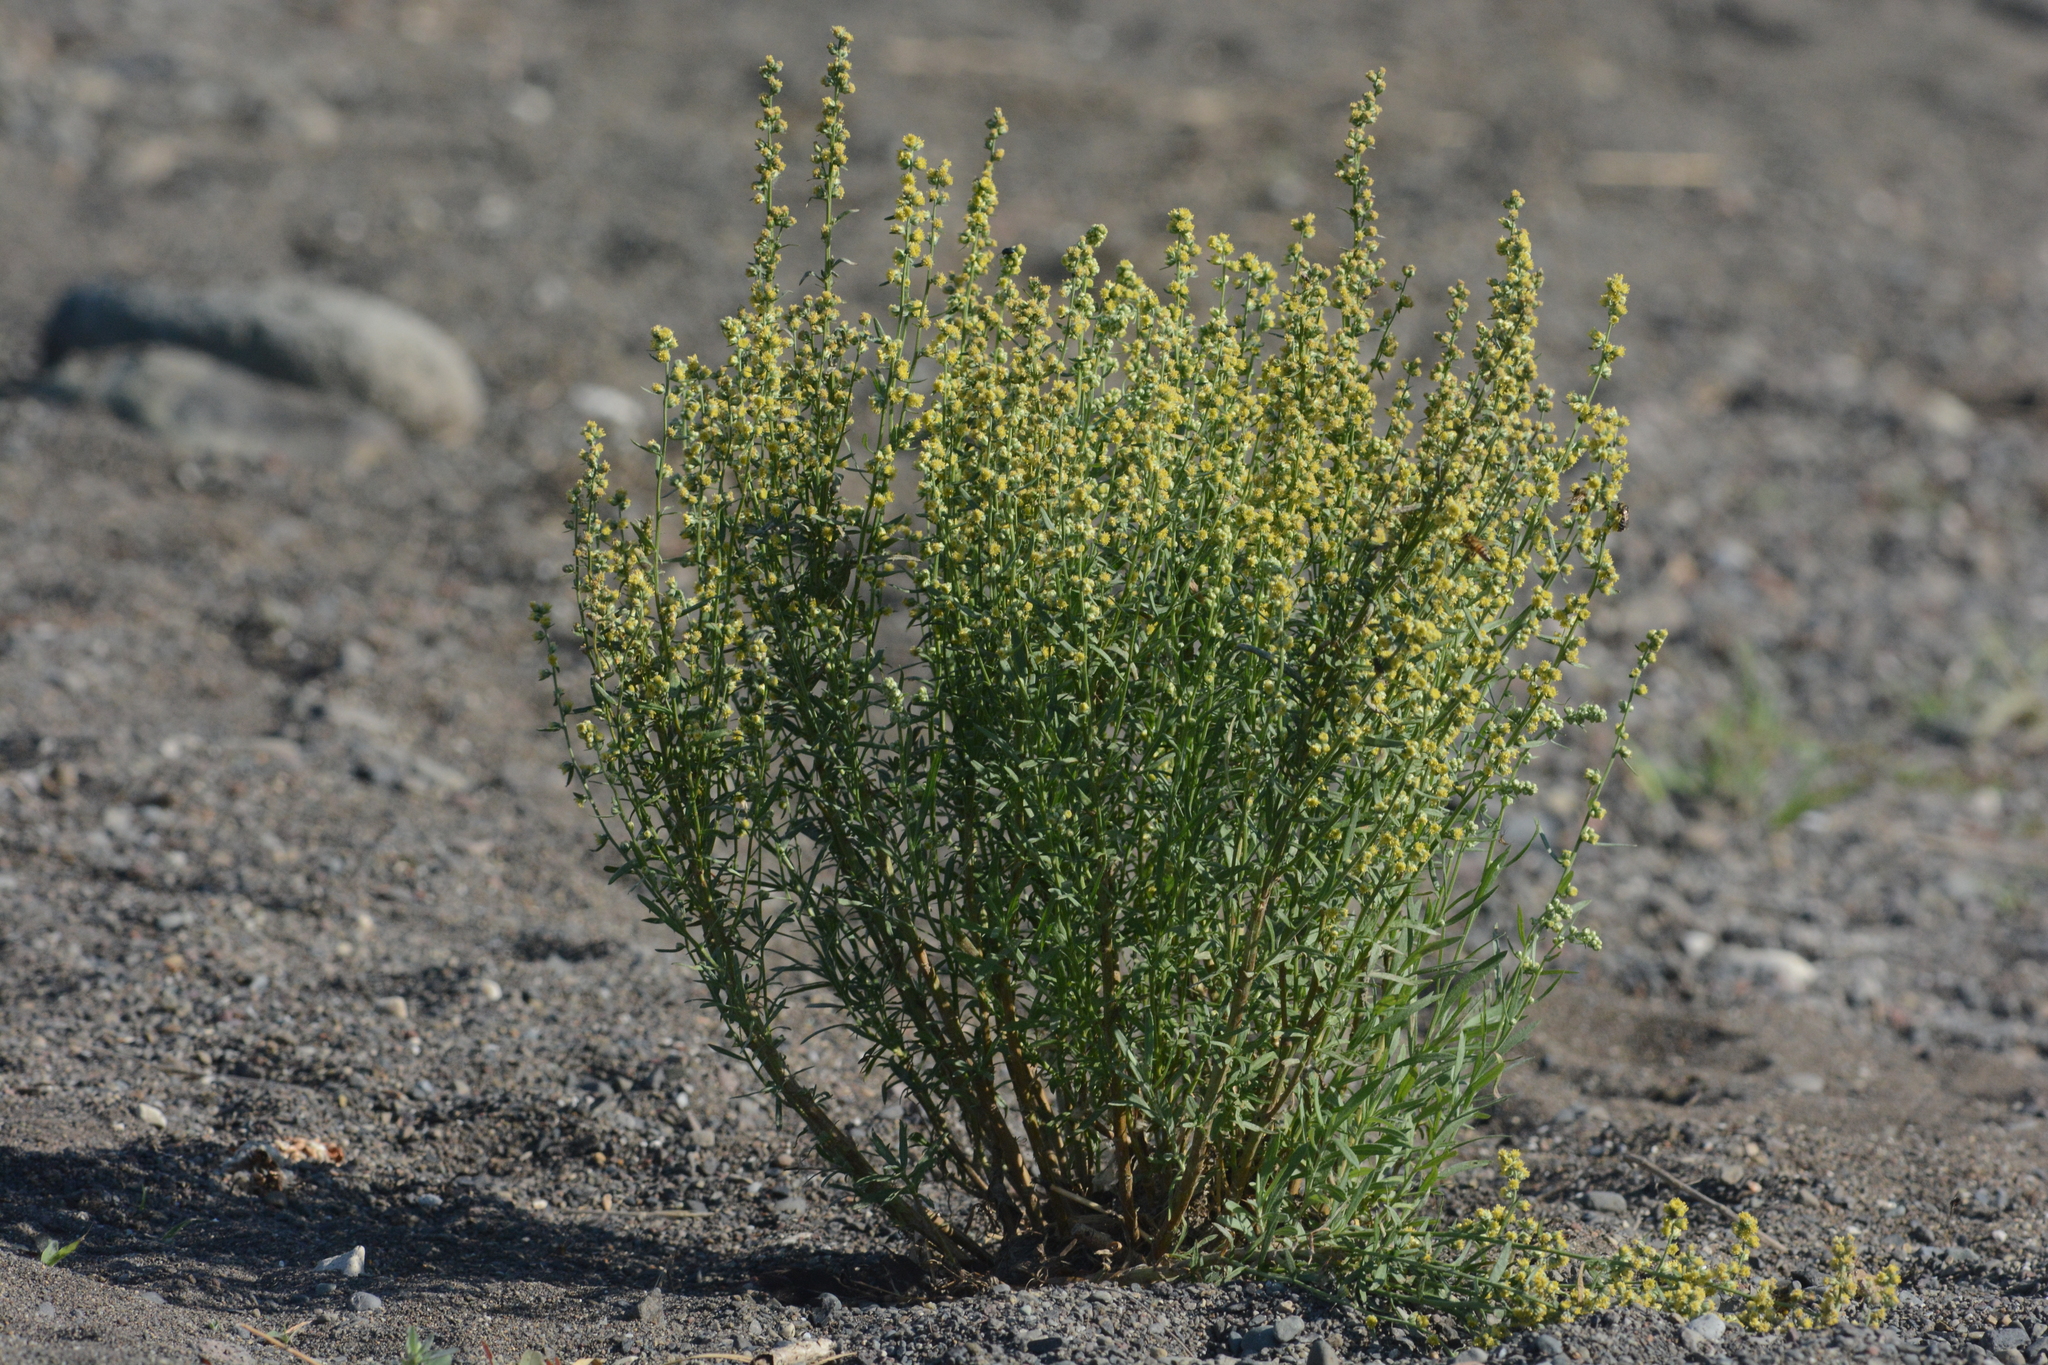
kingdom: Plantae
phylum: Tracheophyta
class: Magnoliopsida
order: Asterales
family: Asteraceae
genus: Artemisia
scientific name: Artemisia campestris
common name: Field wormwood
